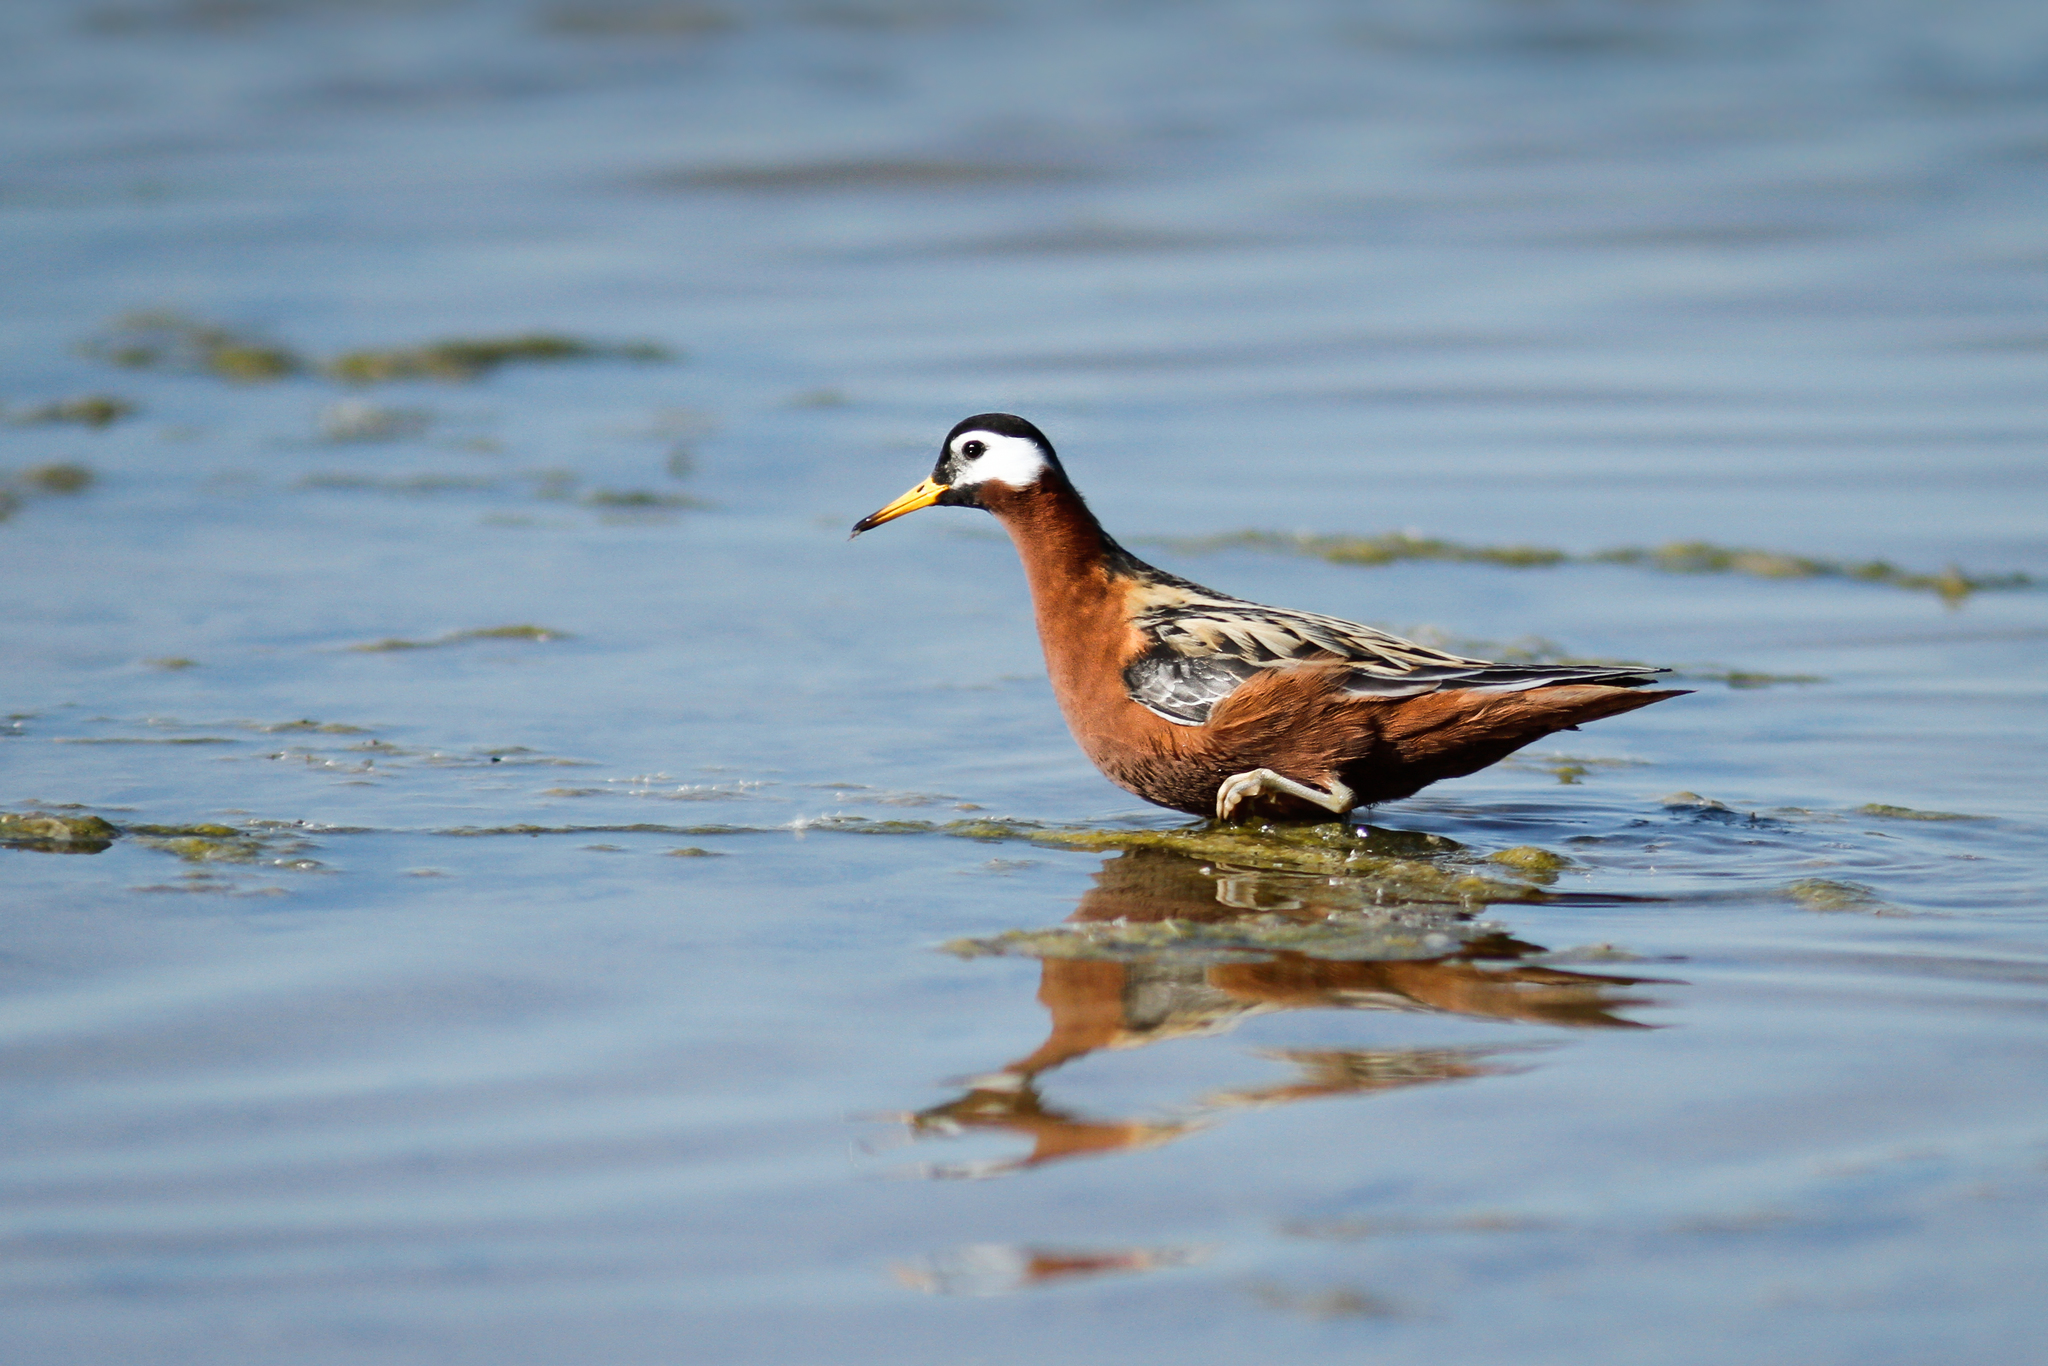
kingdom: Animalia
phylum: Chordata
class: Aves
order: Charadriiformes
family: Scolopacidae
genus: Phalaropus
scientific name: Phalaropus fulicarius
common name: Red phalarope
